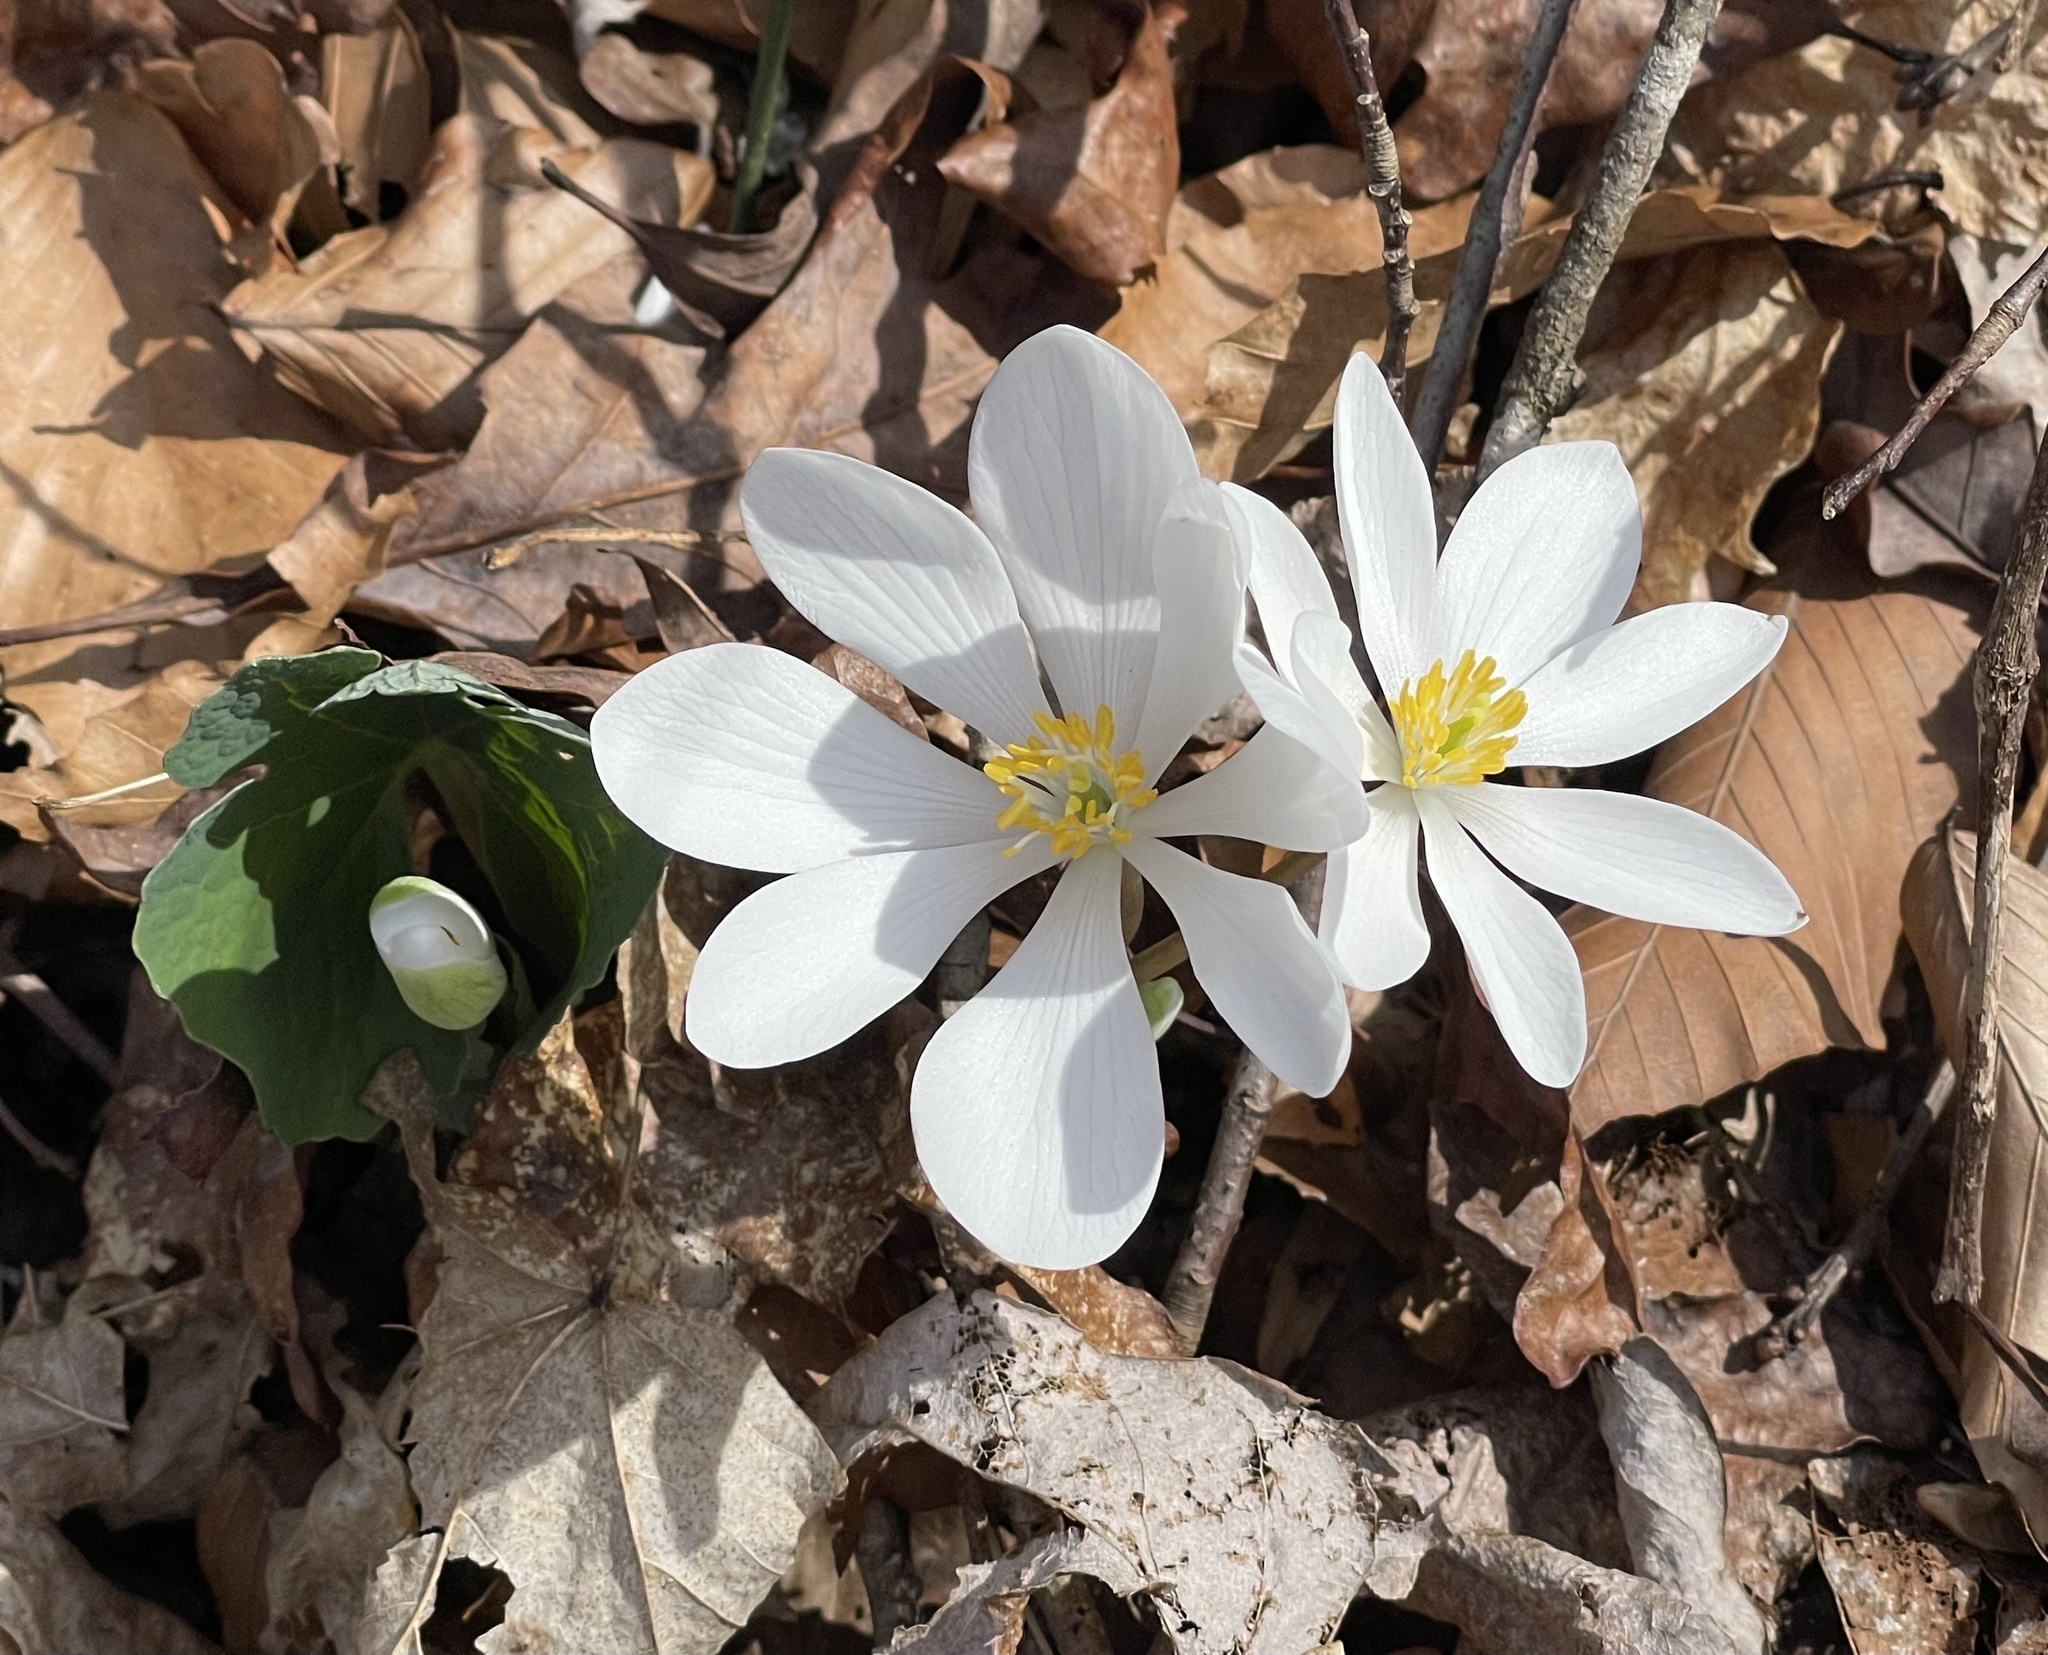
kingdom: Plantae
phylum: Tracheophyta
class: Magnoliopsida
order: Ranunculales
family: Papaveraceae
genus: Sanguinaria
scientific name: Sanguinaria canadensis
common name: Bloodroot
